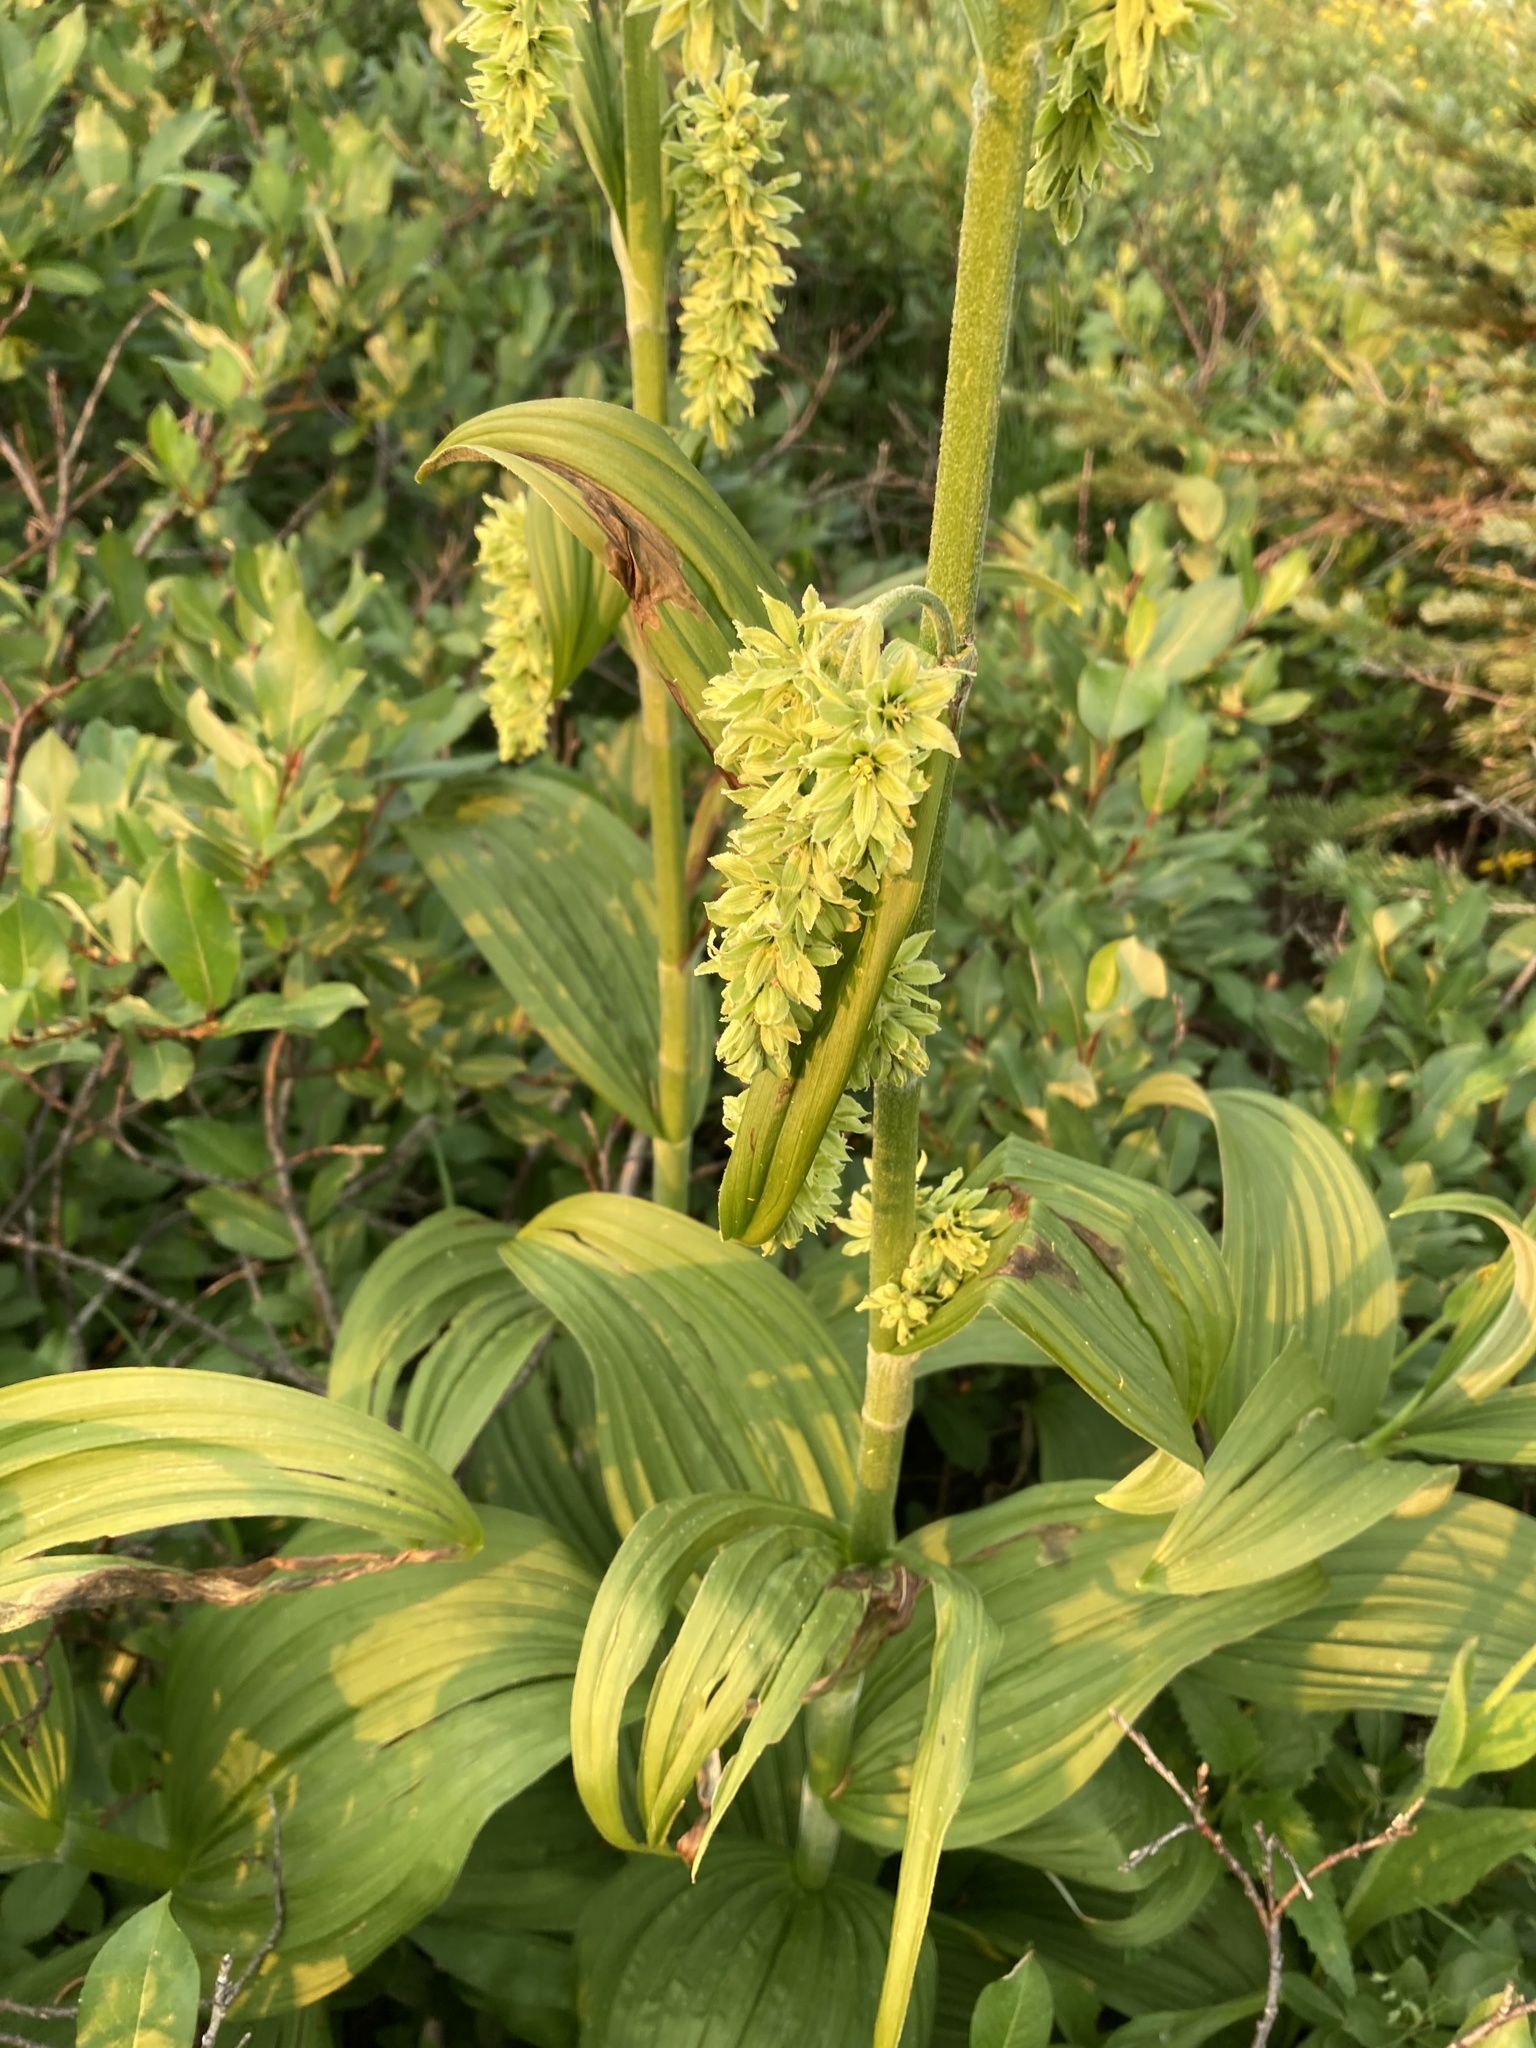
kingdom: Plantae
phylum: Tracheophyta
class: Liliopsida
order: Liliales
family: Melanthiaceae
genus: Veratrum
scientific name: Veratrum viride
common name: American false hellebore
